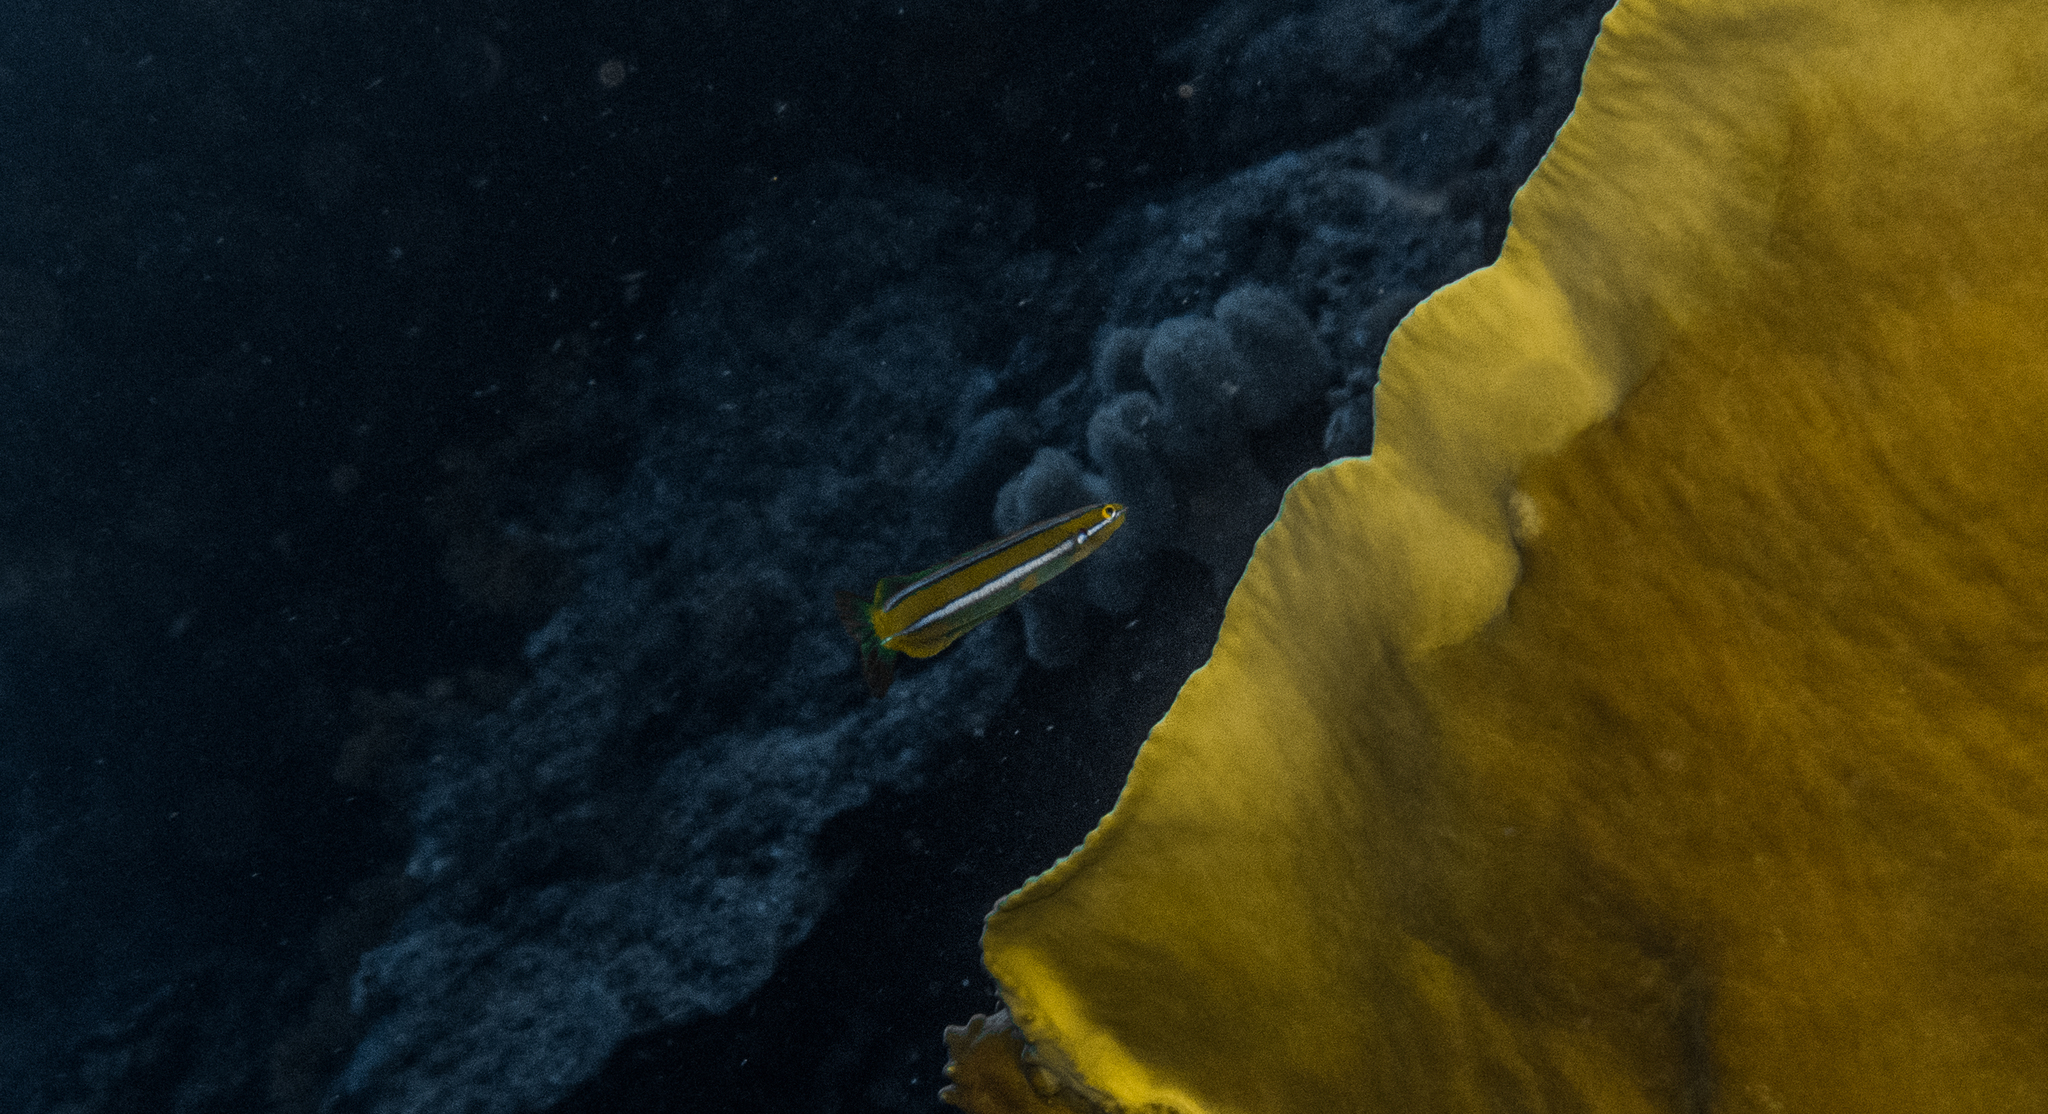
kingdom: Animalia
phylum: Chordata
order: Perciformes
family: Blenniidae
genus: Plagiotremus
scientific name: Plagiotremus rhinorhynchos
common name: Bluestriped fangblenny
